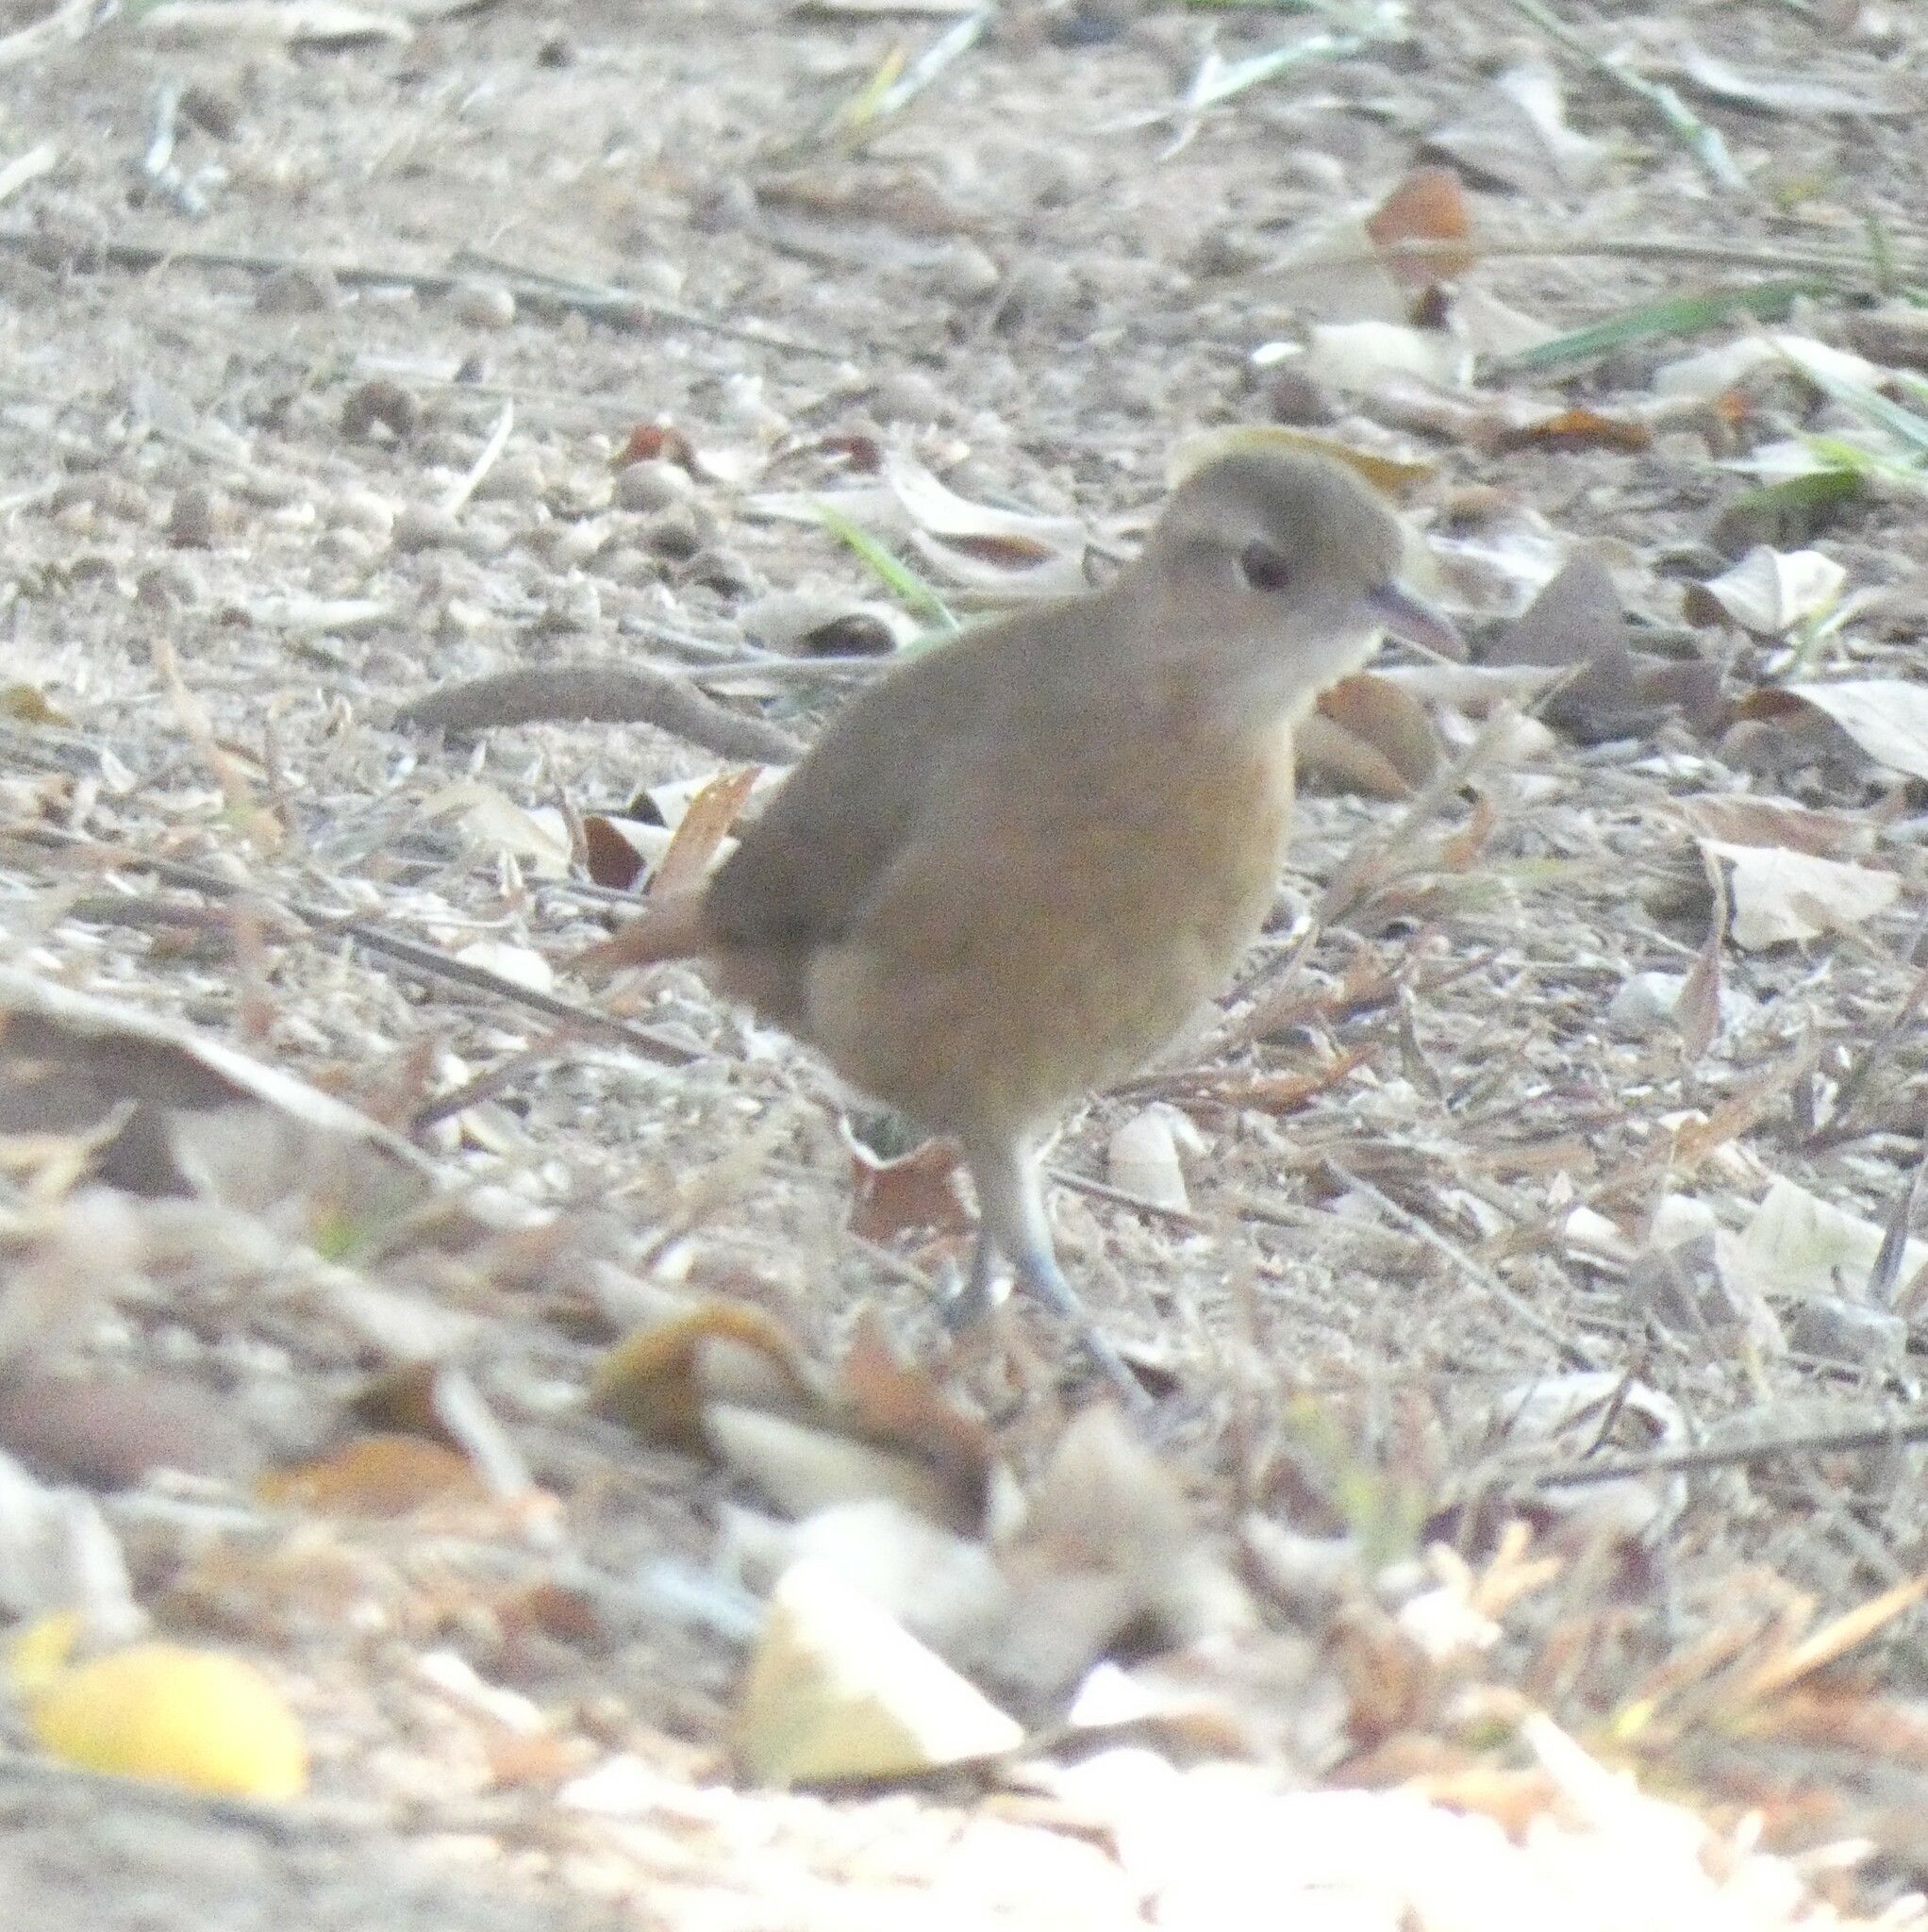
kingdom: Animalia
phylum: Chordata
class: Aves
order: Passeriformes
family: Furnariidae
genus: Furnarius
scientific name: Furnarius rufus
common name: Rufous hornero
